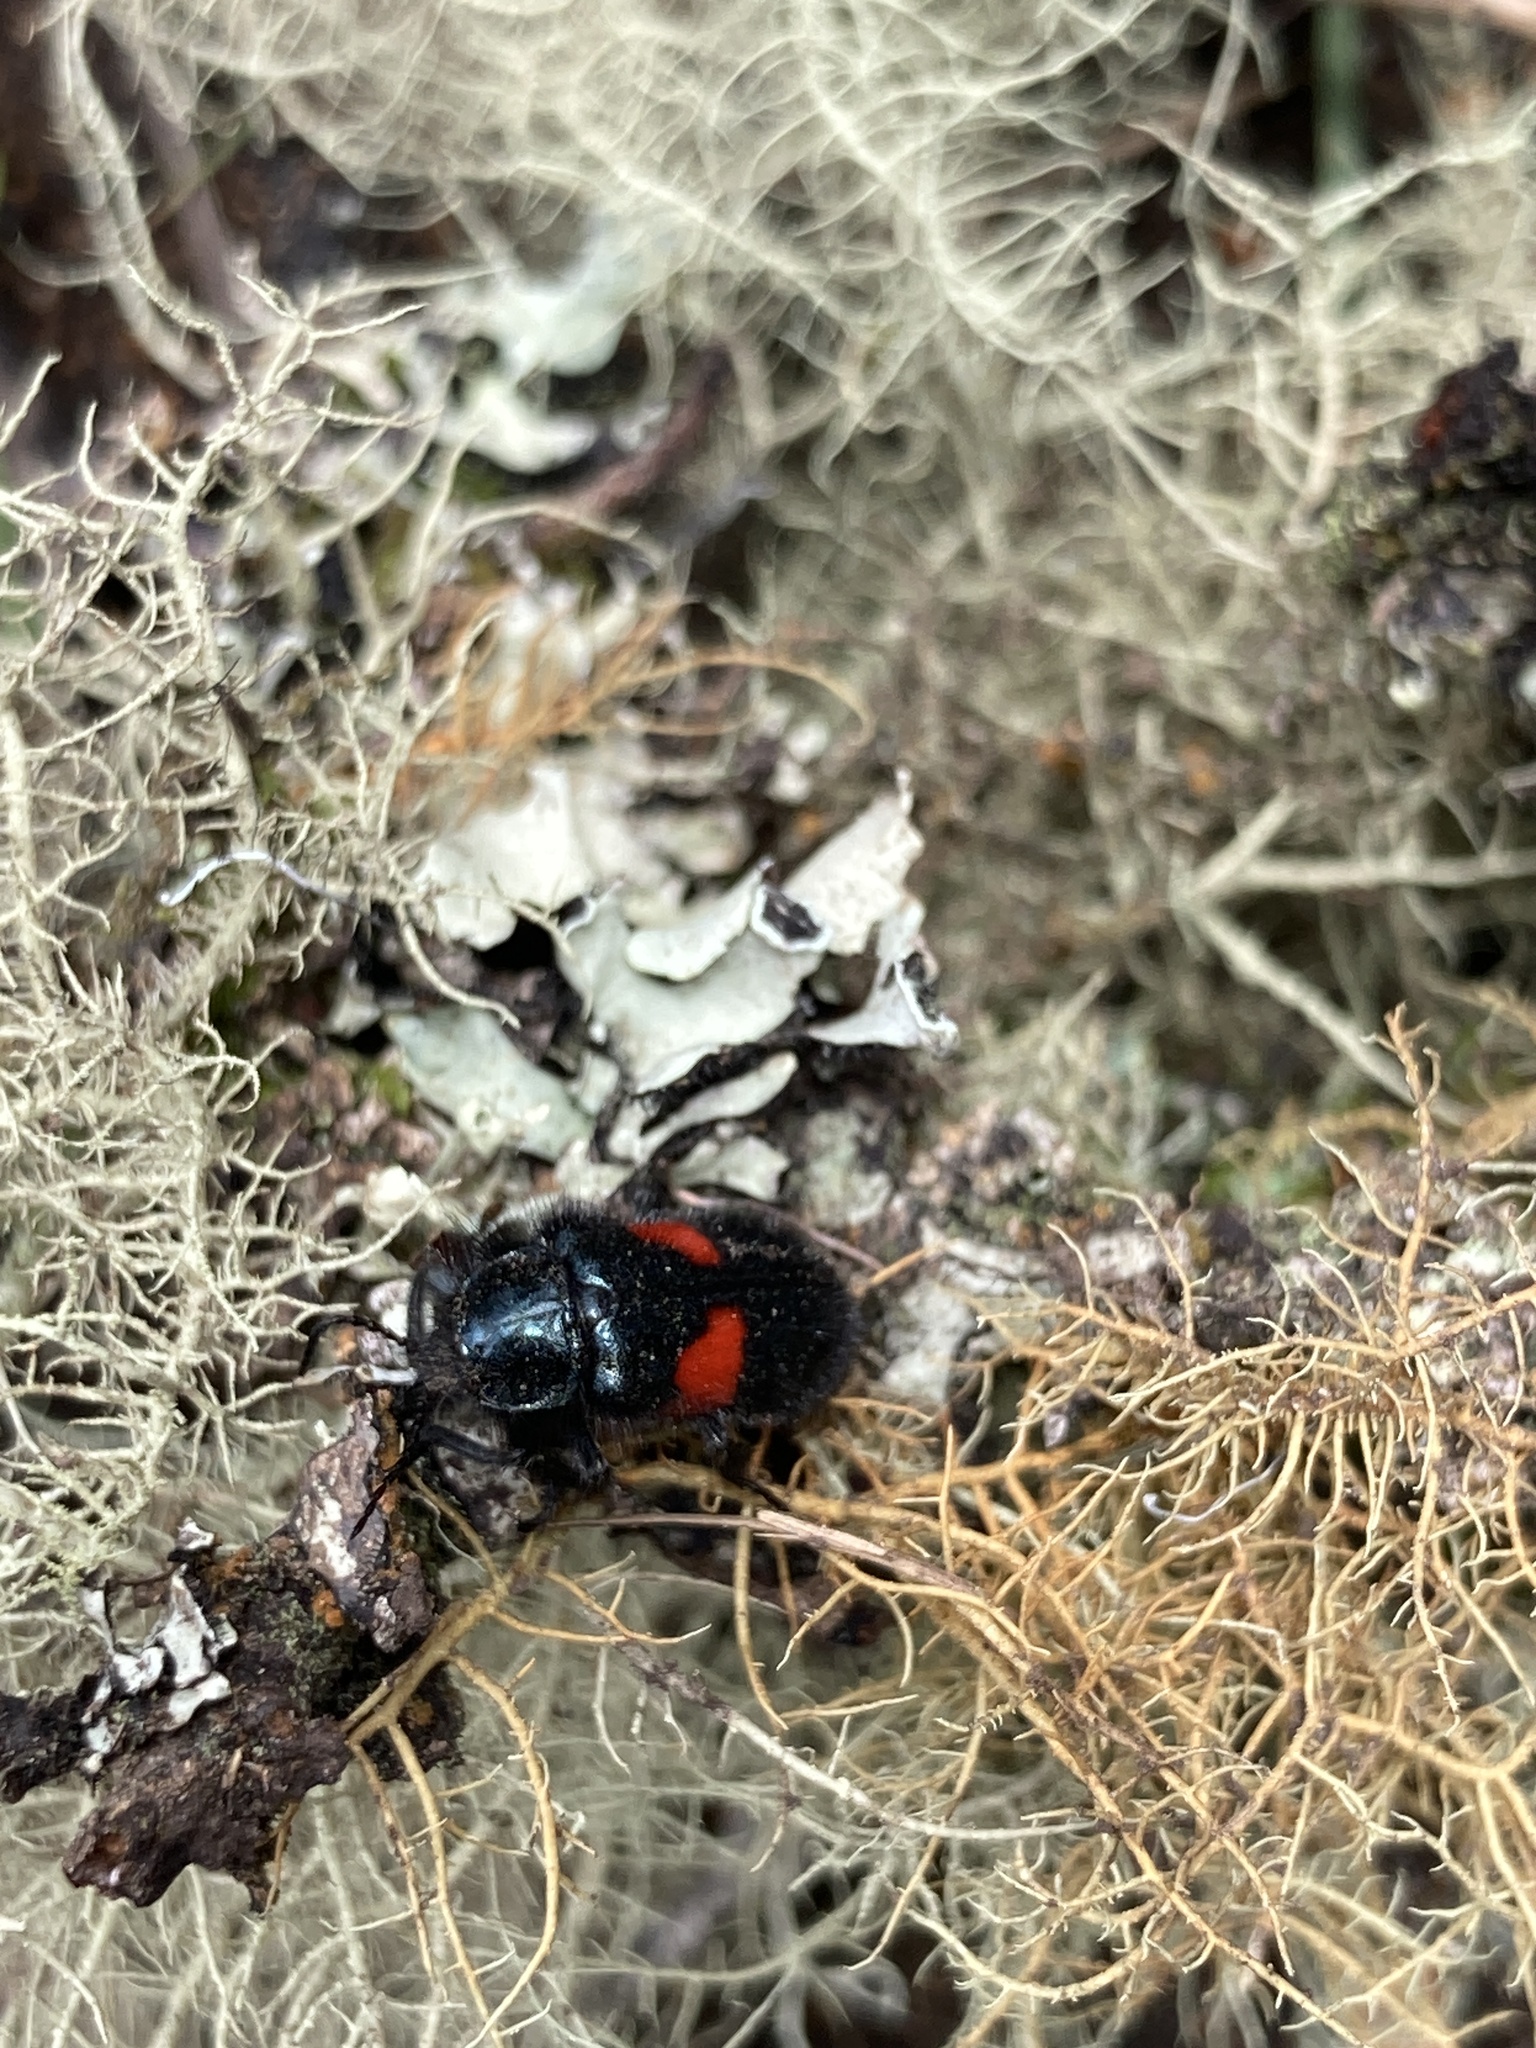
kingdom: Animalia
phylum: Arthropoda
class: Insecta
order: Coleoptera
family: Melyridae
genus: Astylus
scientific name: Astylus
